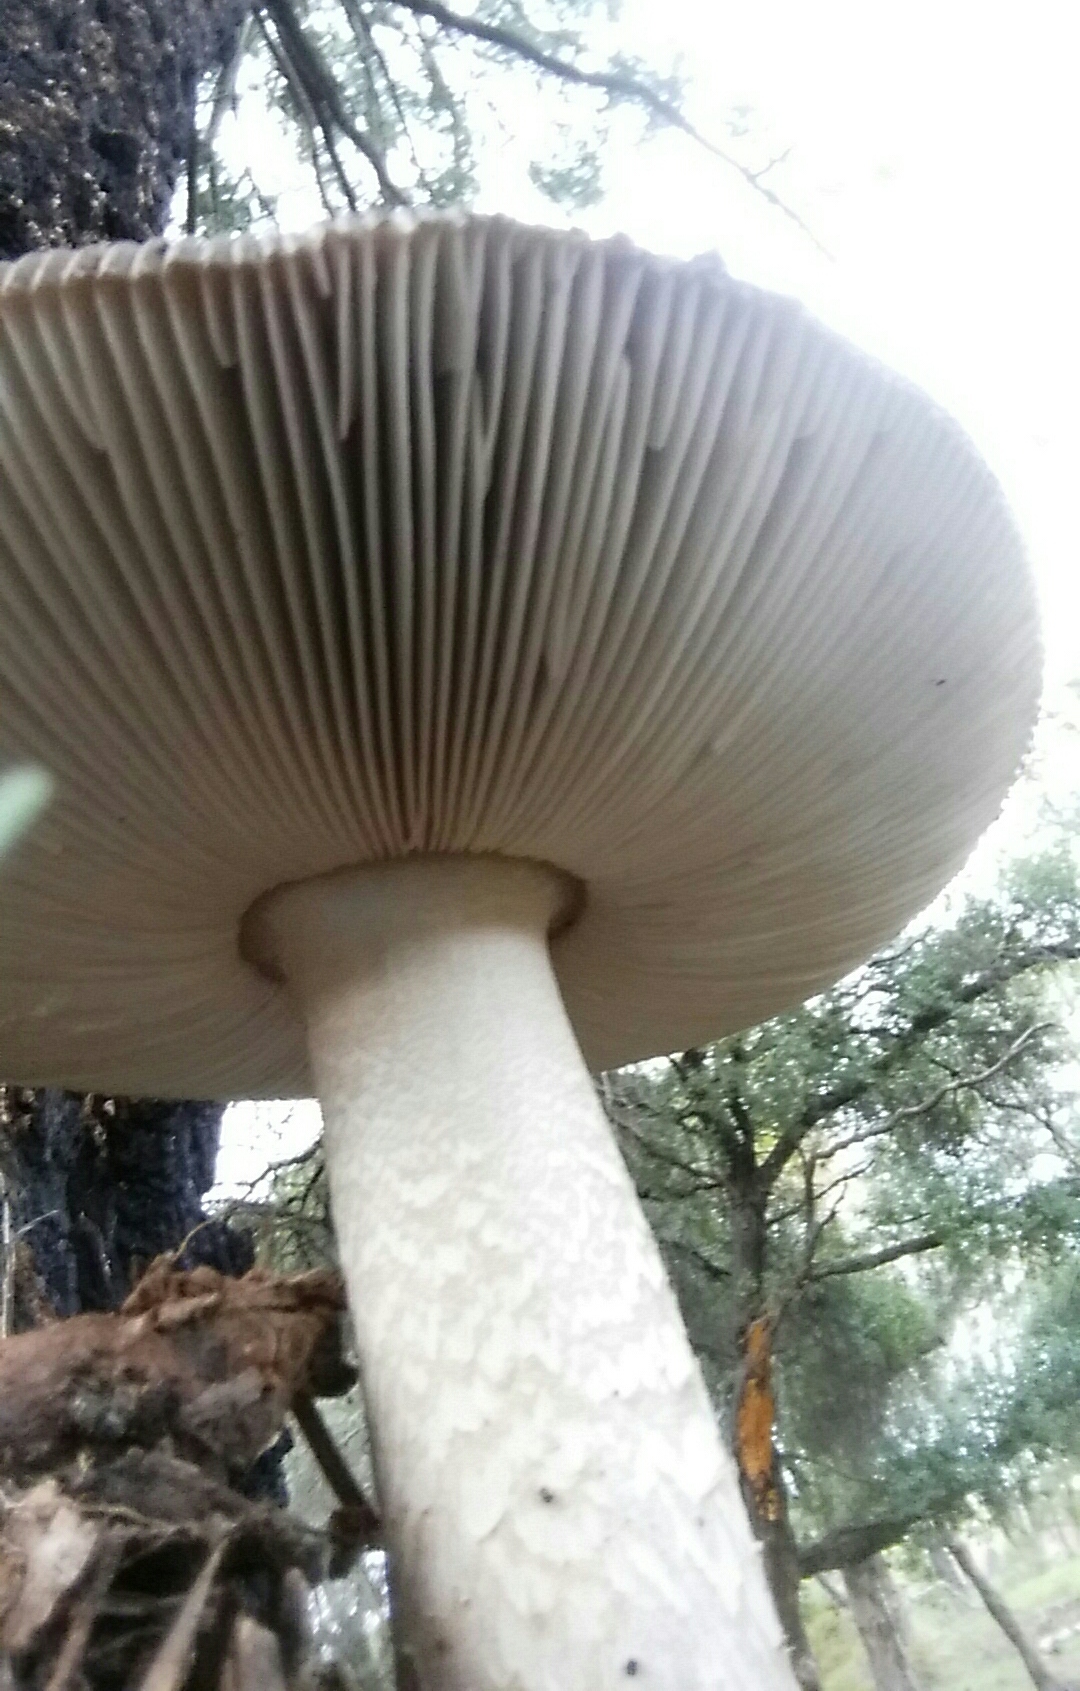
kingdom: Fungi
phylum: Basidiomycota
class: Agaricomycetes
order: Agaricales
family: Amanitaceae
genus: Amanita
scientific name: Amanita constricta
